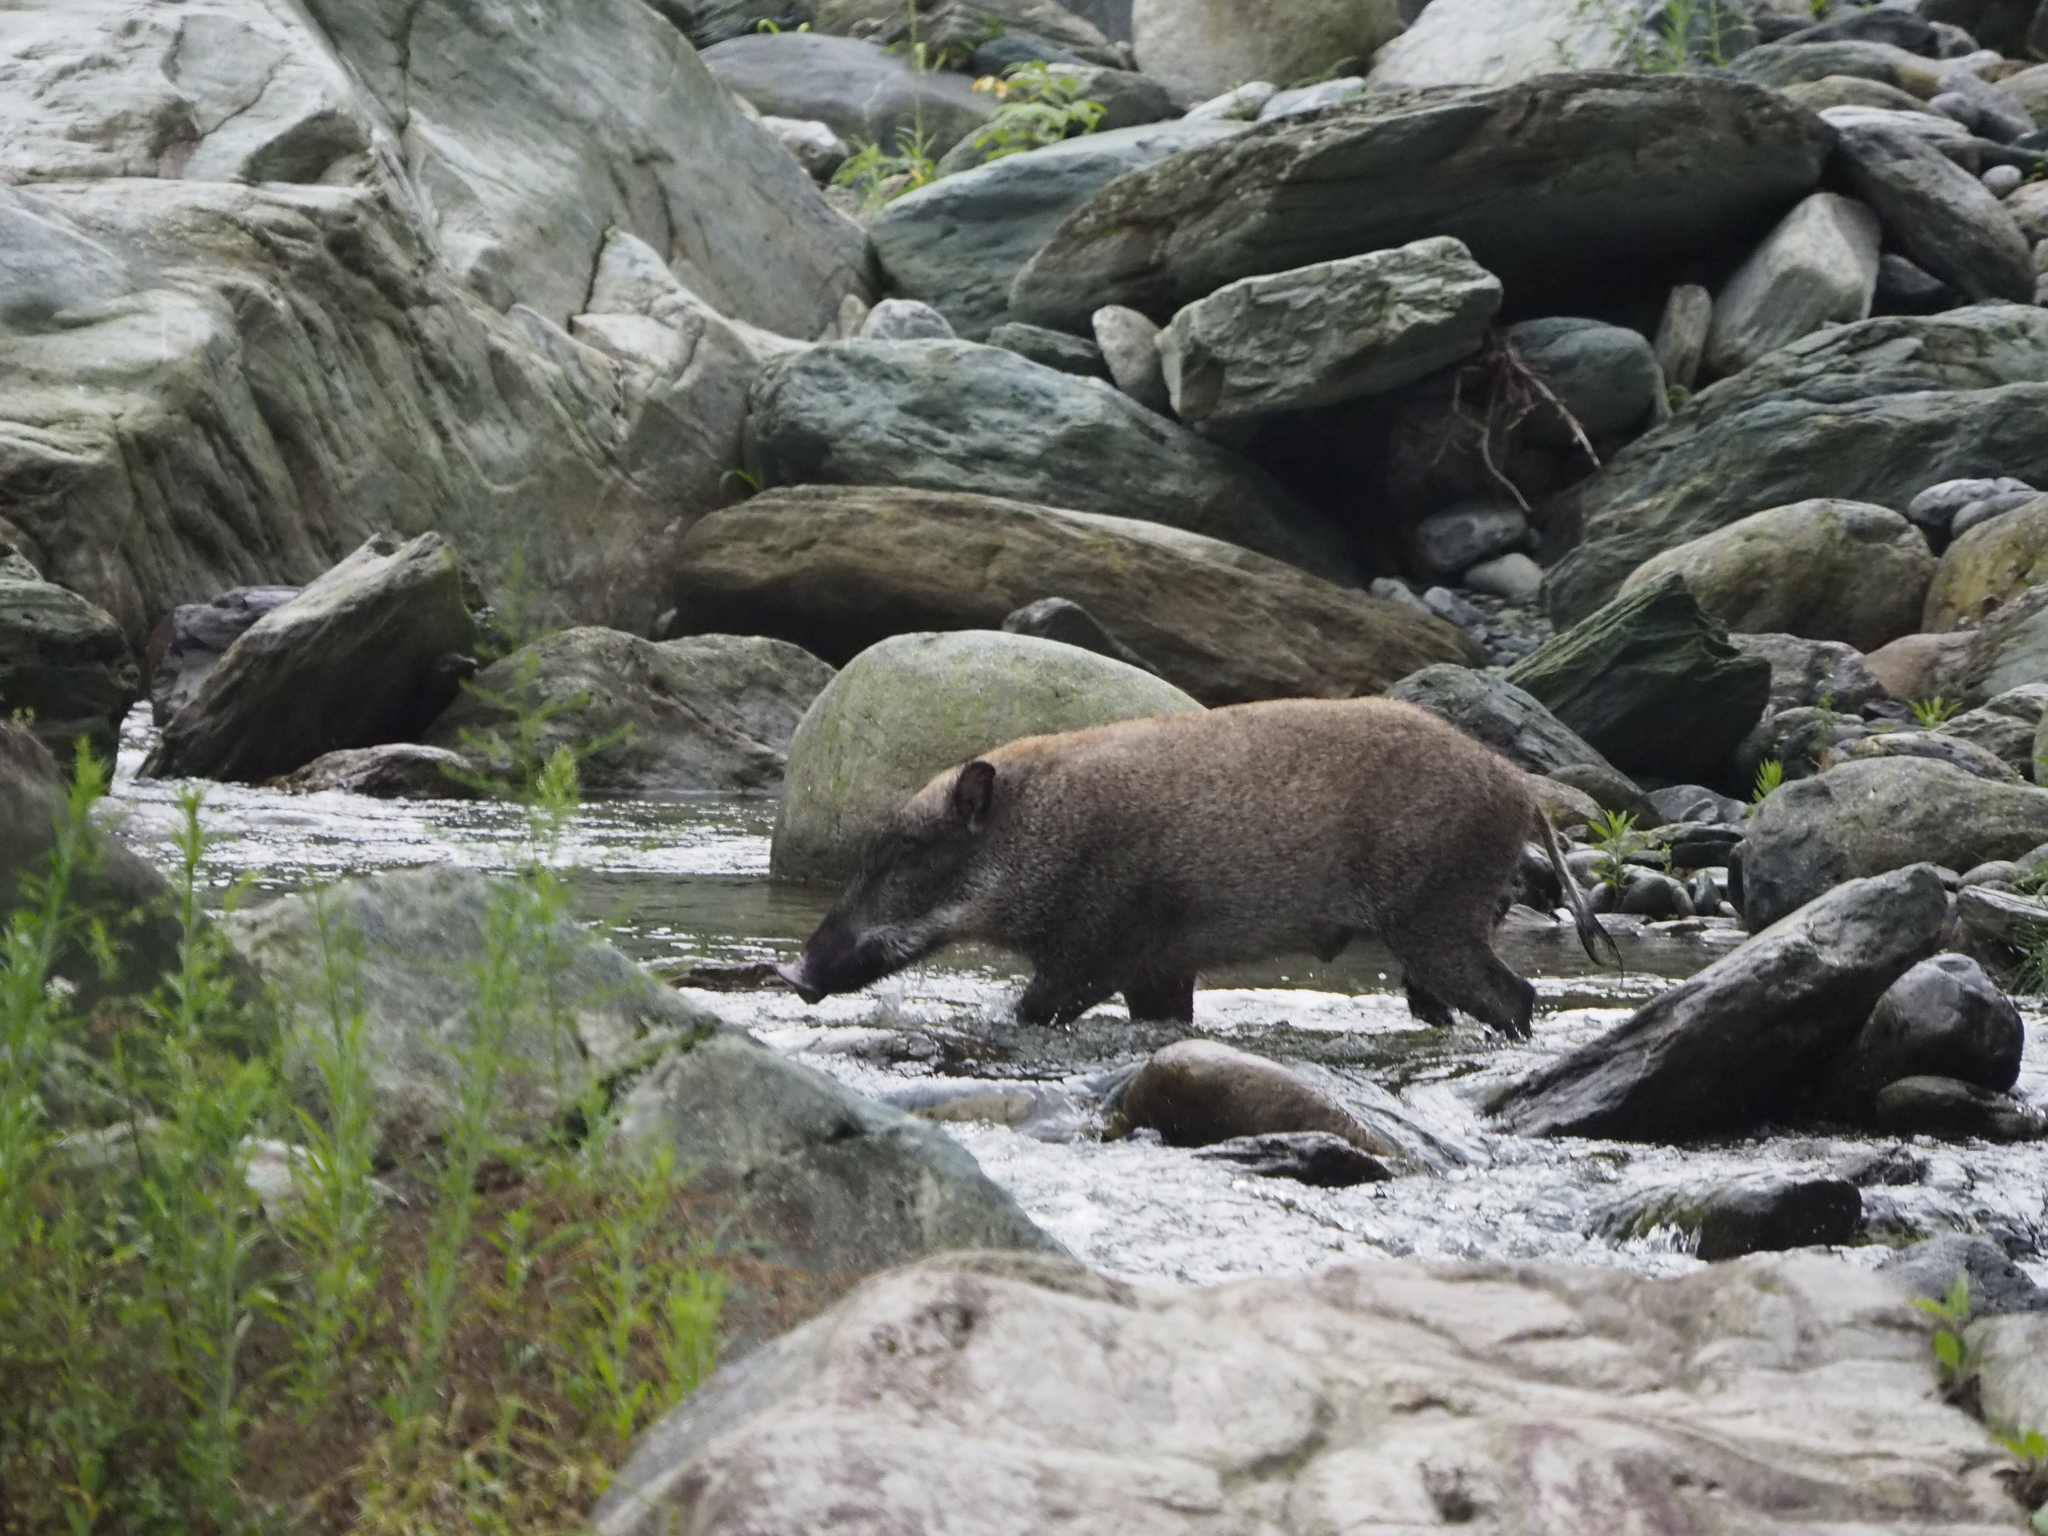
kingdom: Animalia
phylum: Chordata
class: Mammalia
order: Artiodactyla
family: Suidae
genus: Sus
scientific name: Sus scrofa
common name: Wild boar
